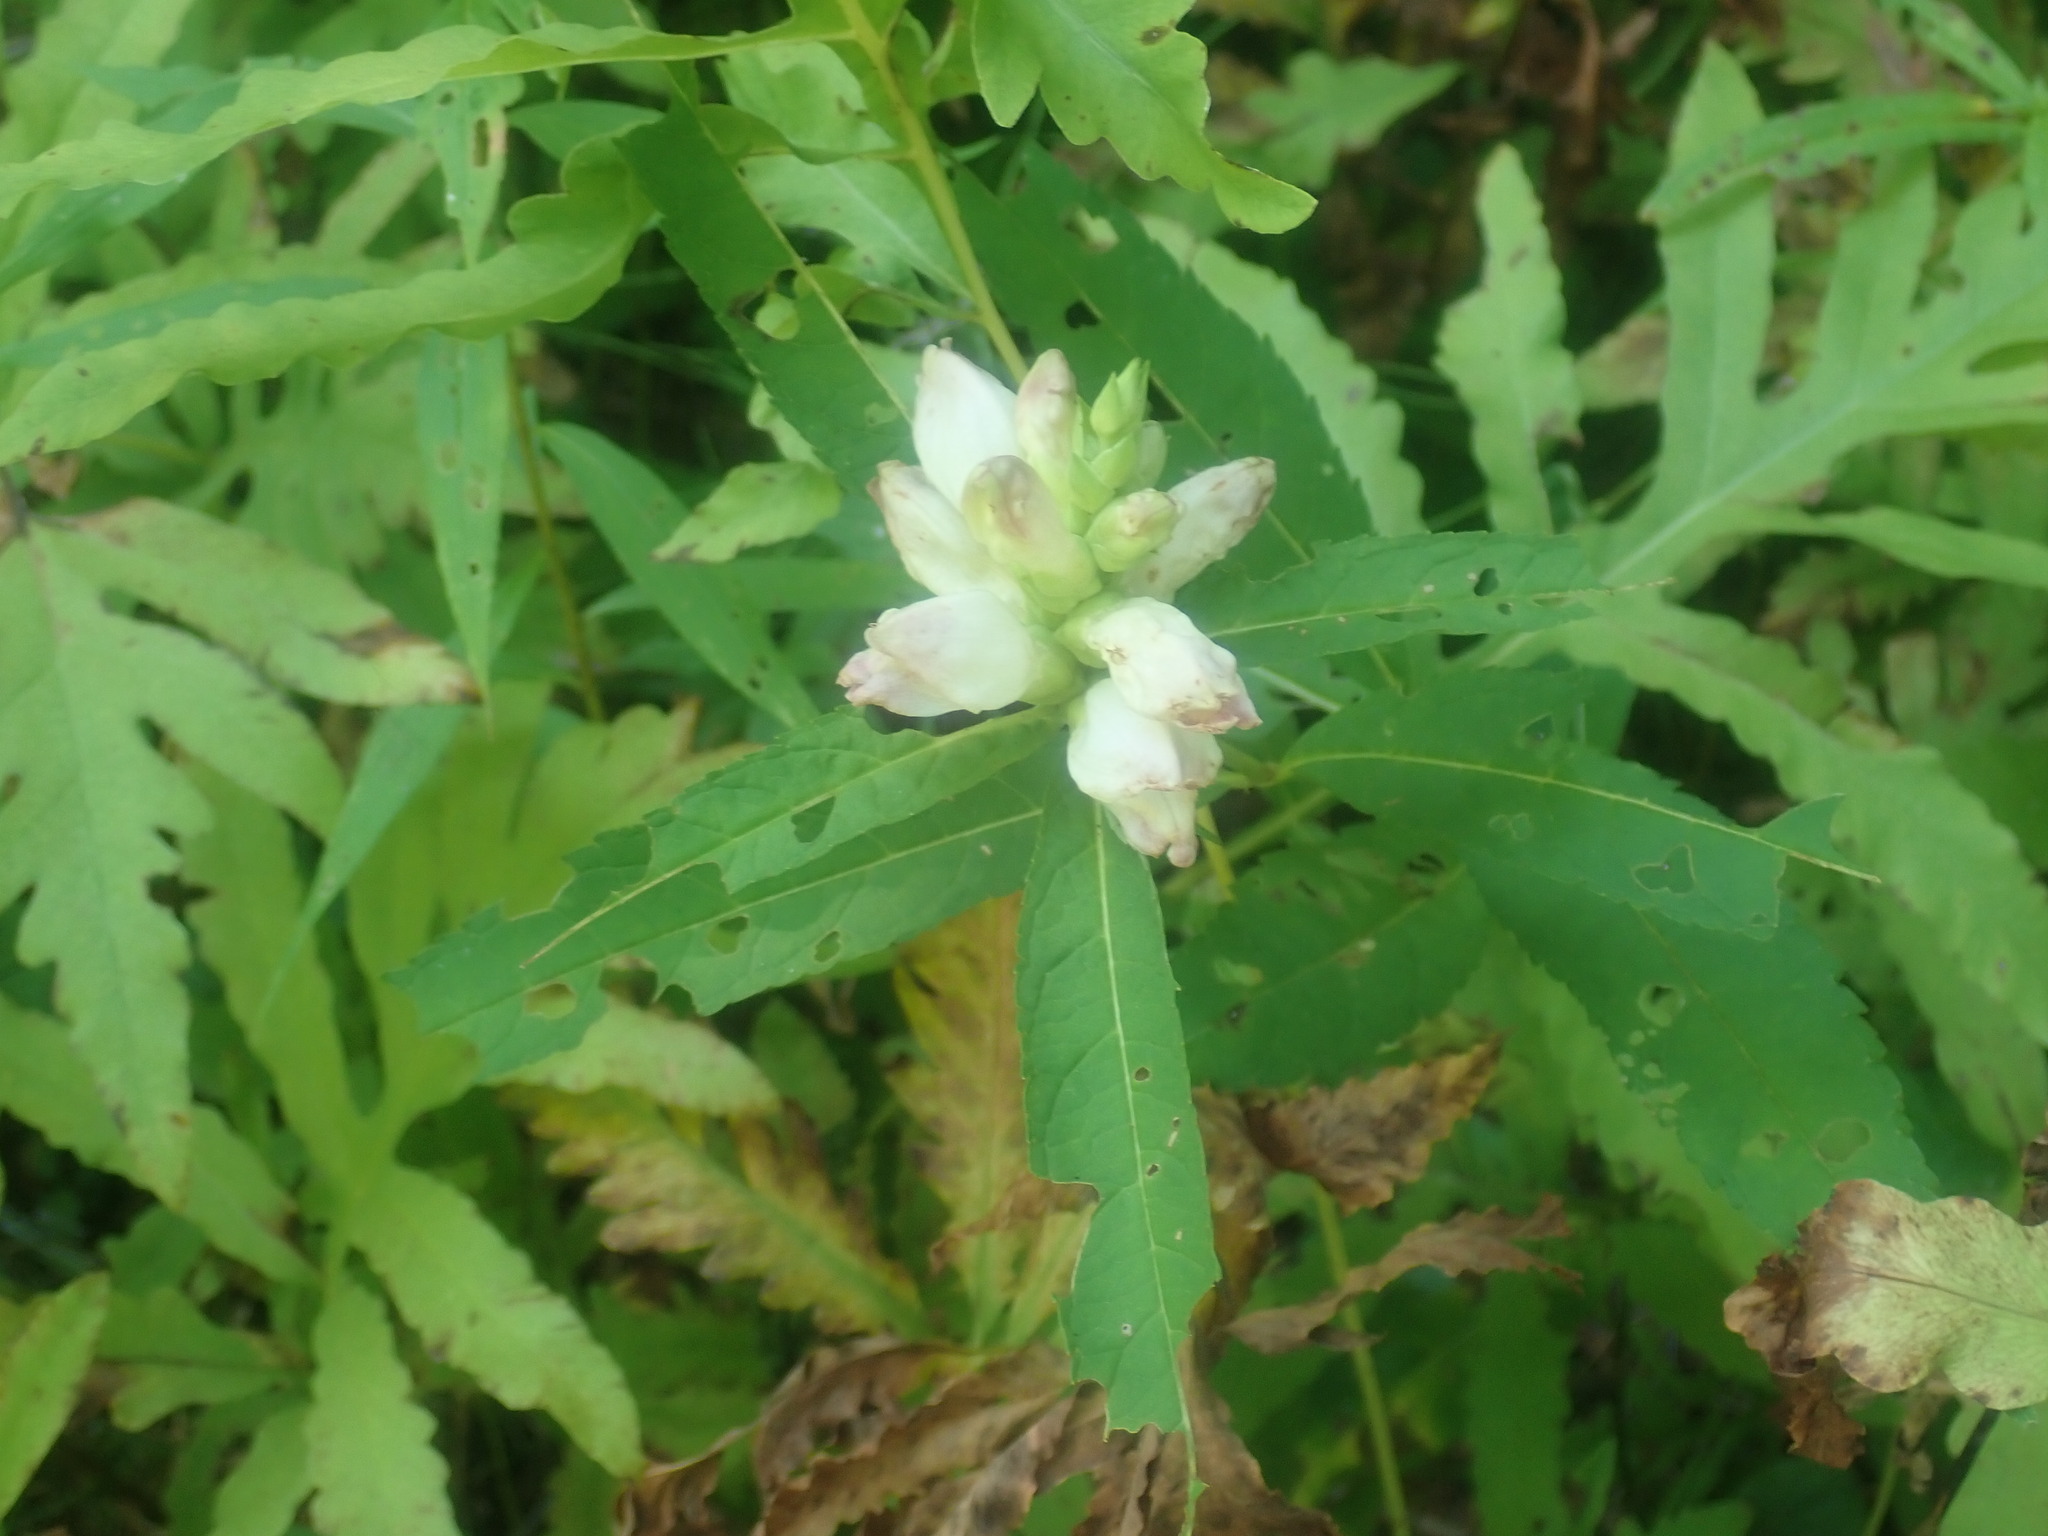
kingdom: Plantae
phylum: Tracheophyta
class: Magnoliopsida
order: Lamiales
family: Plantaginaceae
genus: Chelone
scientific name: Chelone glabra
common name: Snakehead
